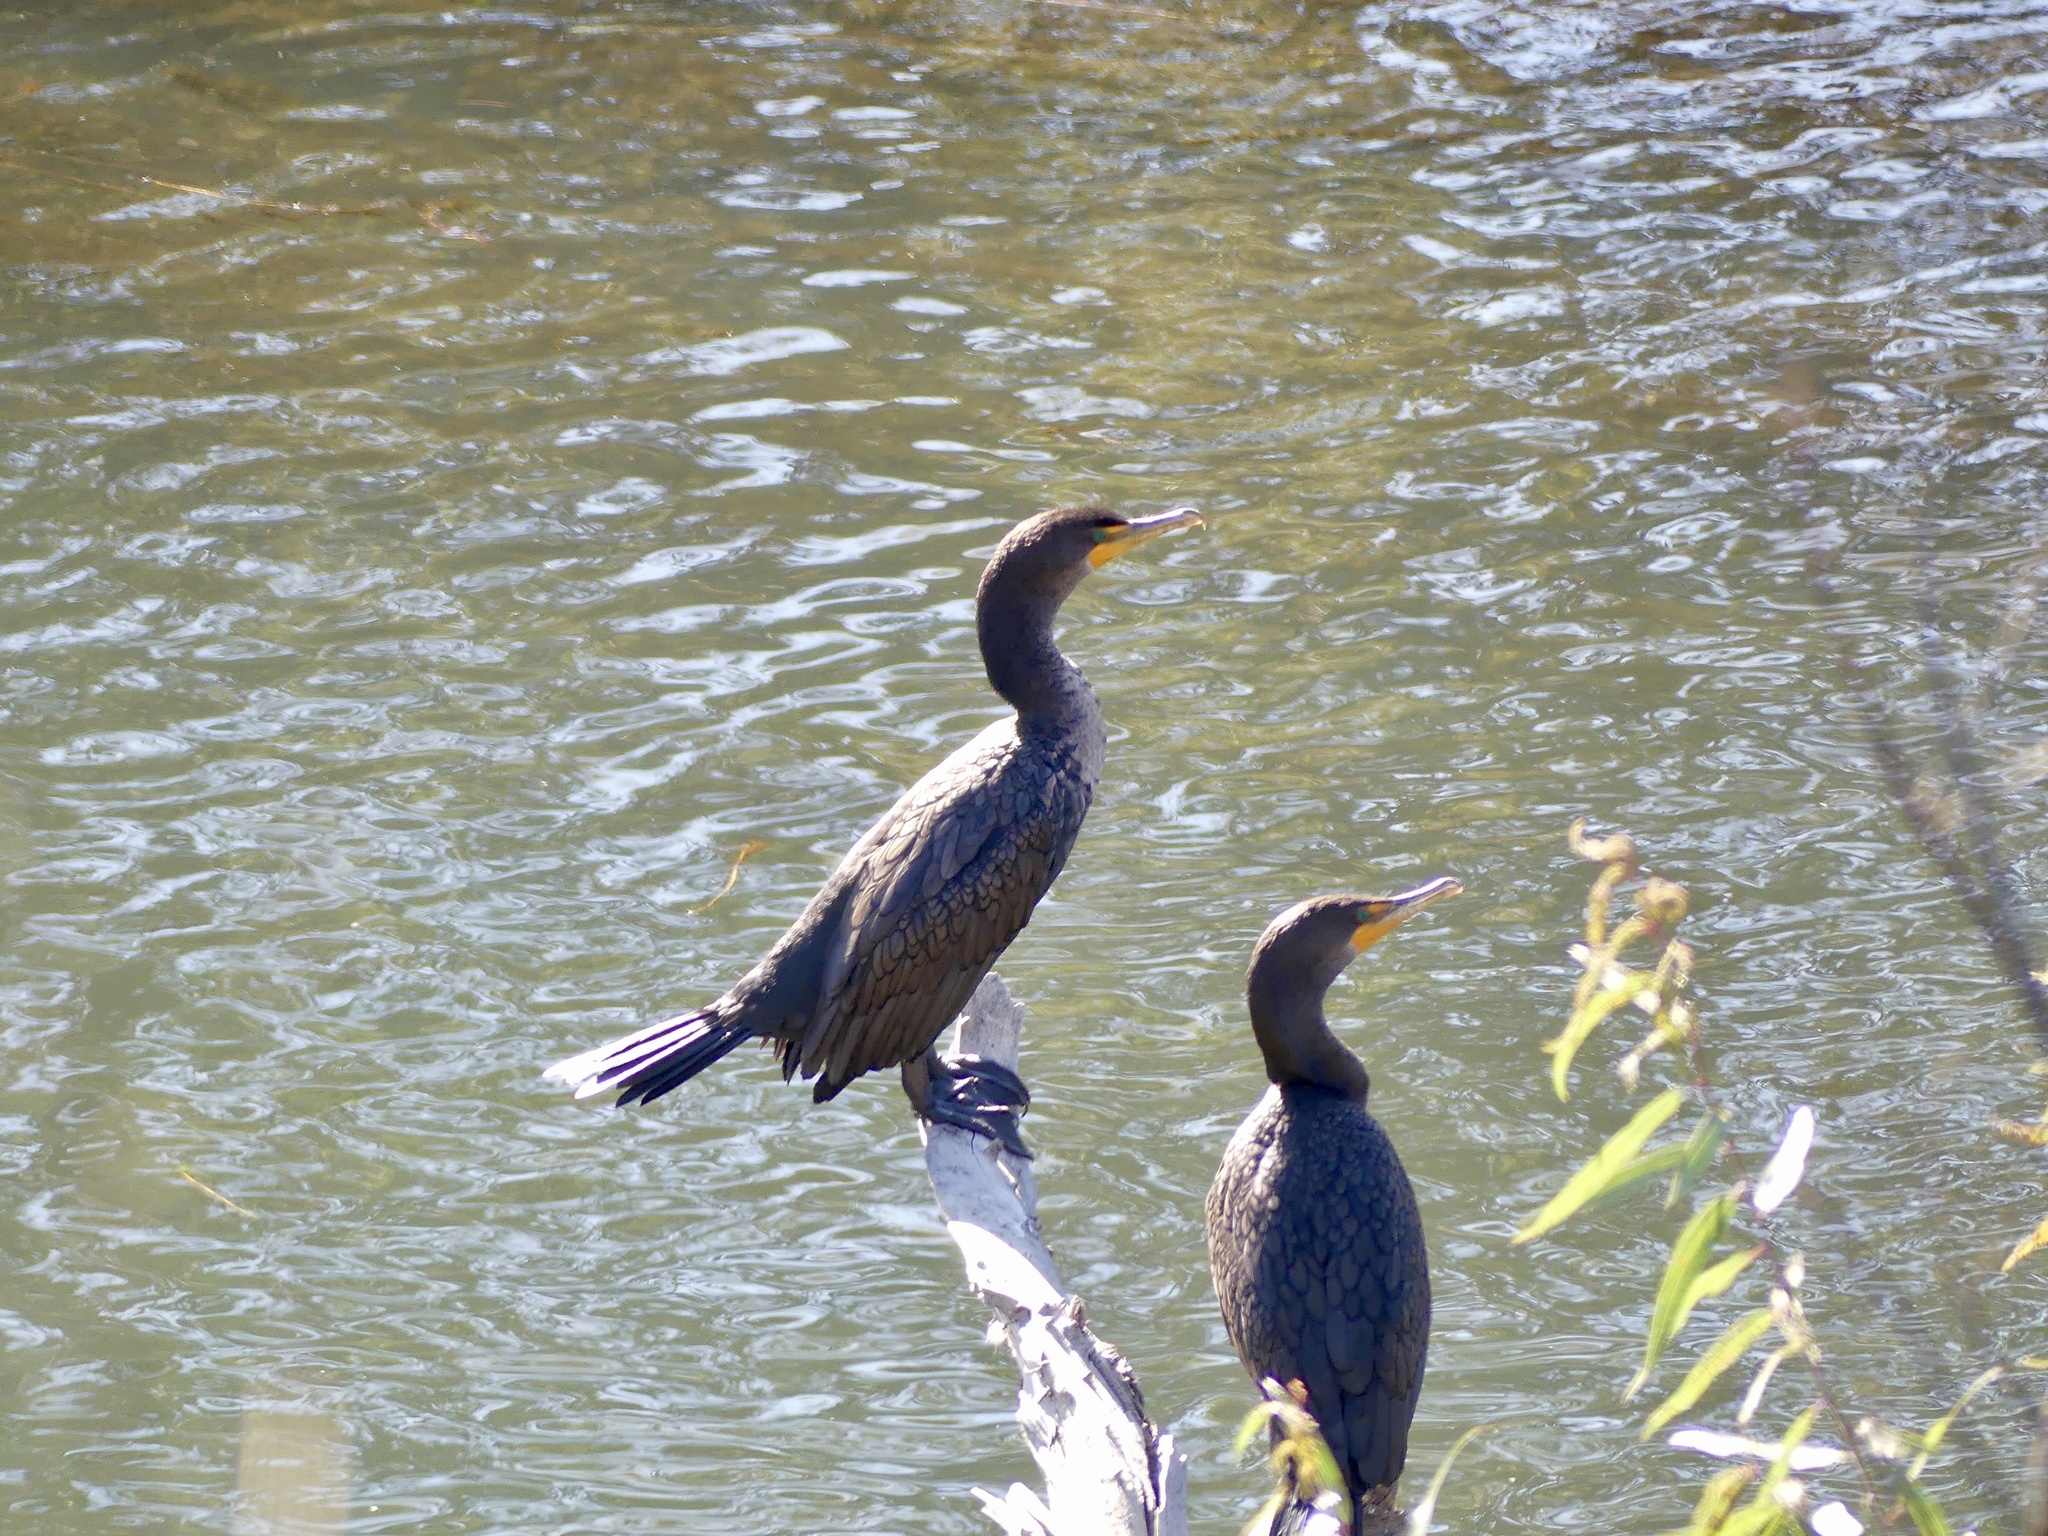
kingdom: Animalia
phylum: Chordata
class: Aves
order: Suliformes
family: Phalacrocoracidae
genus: Phalacrocorax
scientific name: Phalacrocorax auritus
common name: Double-crested cormorant
